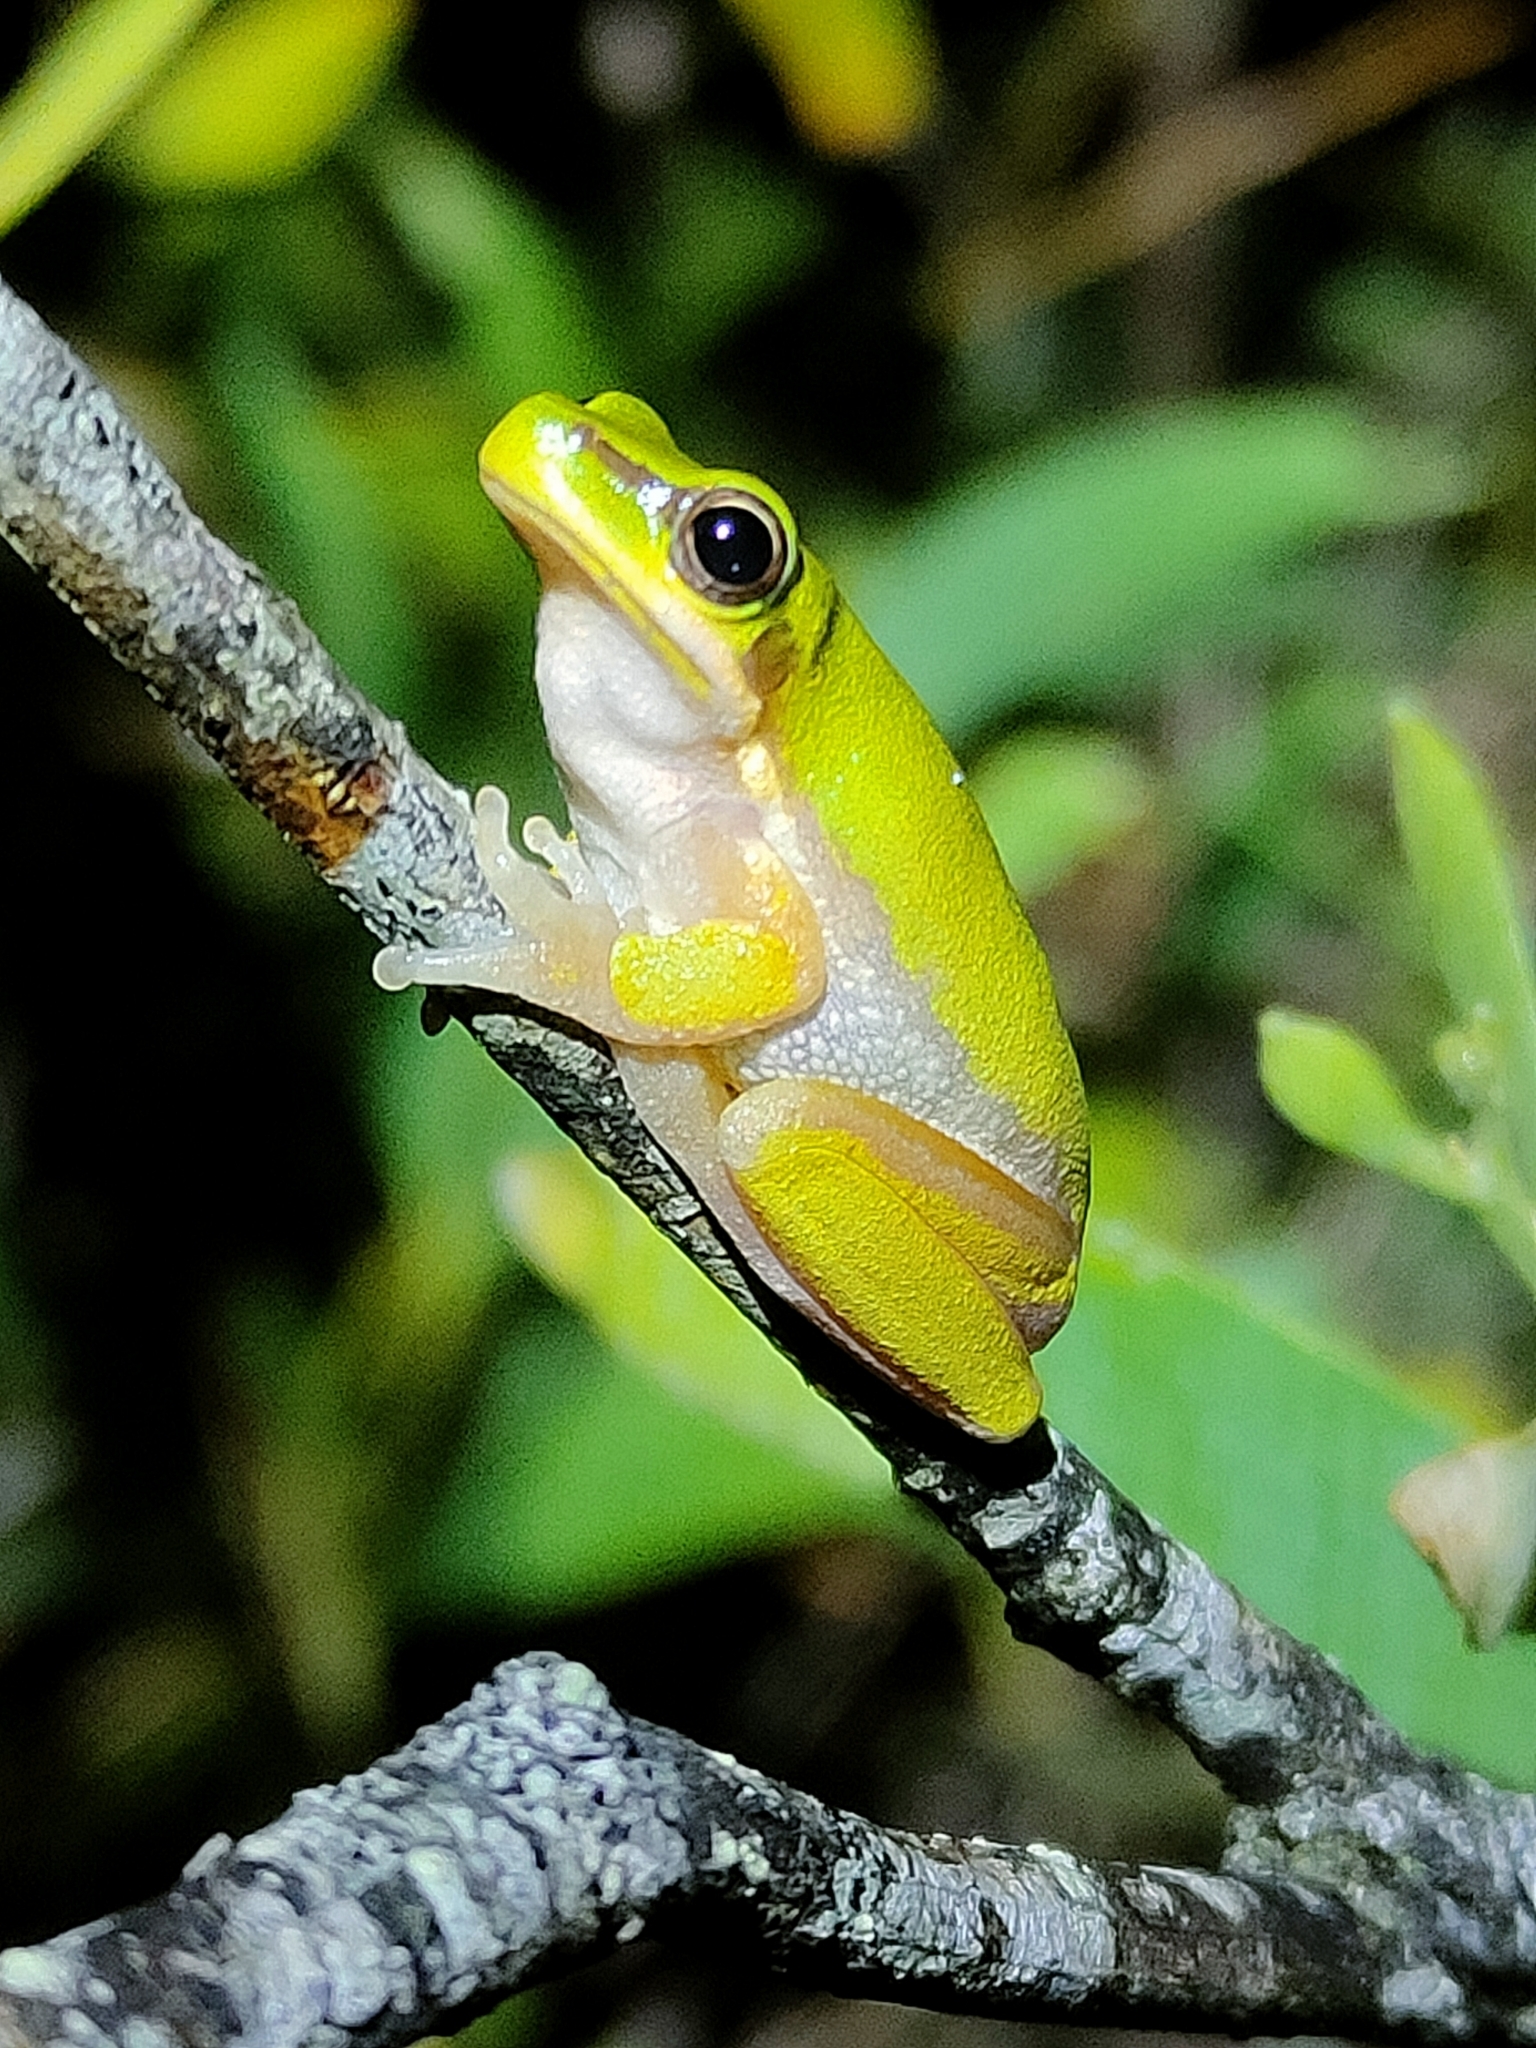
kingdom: Animalia
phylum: Chordata
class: Amphibia
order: Anura
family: Pelodryadidae
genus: Litoria
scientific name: Litoria fallax
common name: Eastern dwarf treefrog
